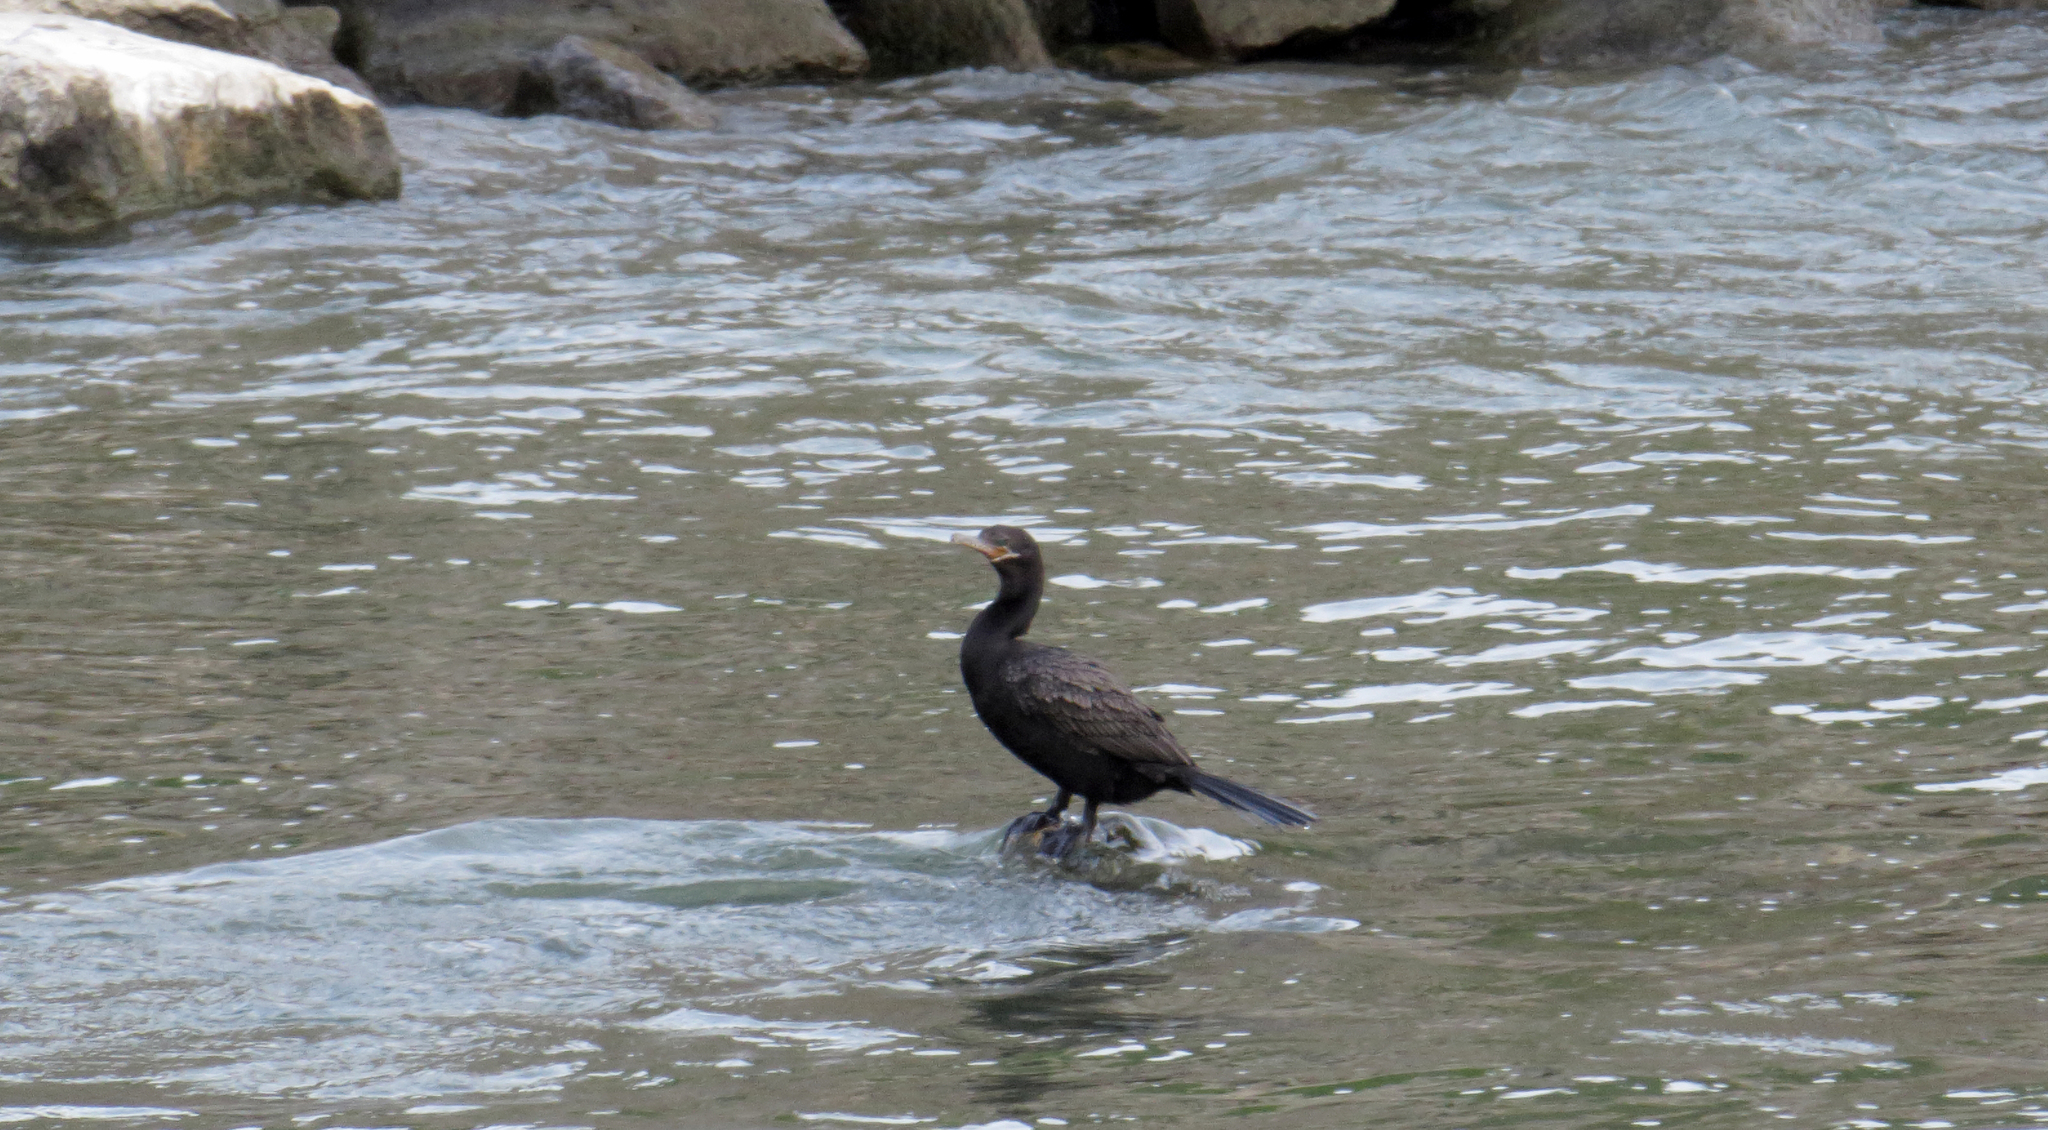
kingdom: Animalia
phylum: Chordata
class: Aves
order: Suliformes
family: Phalacrocoracidae
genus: Phalacrocorax
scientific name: Phalacrocorax brasilianus
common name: Neotropic cormorant
